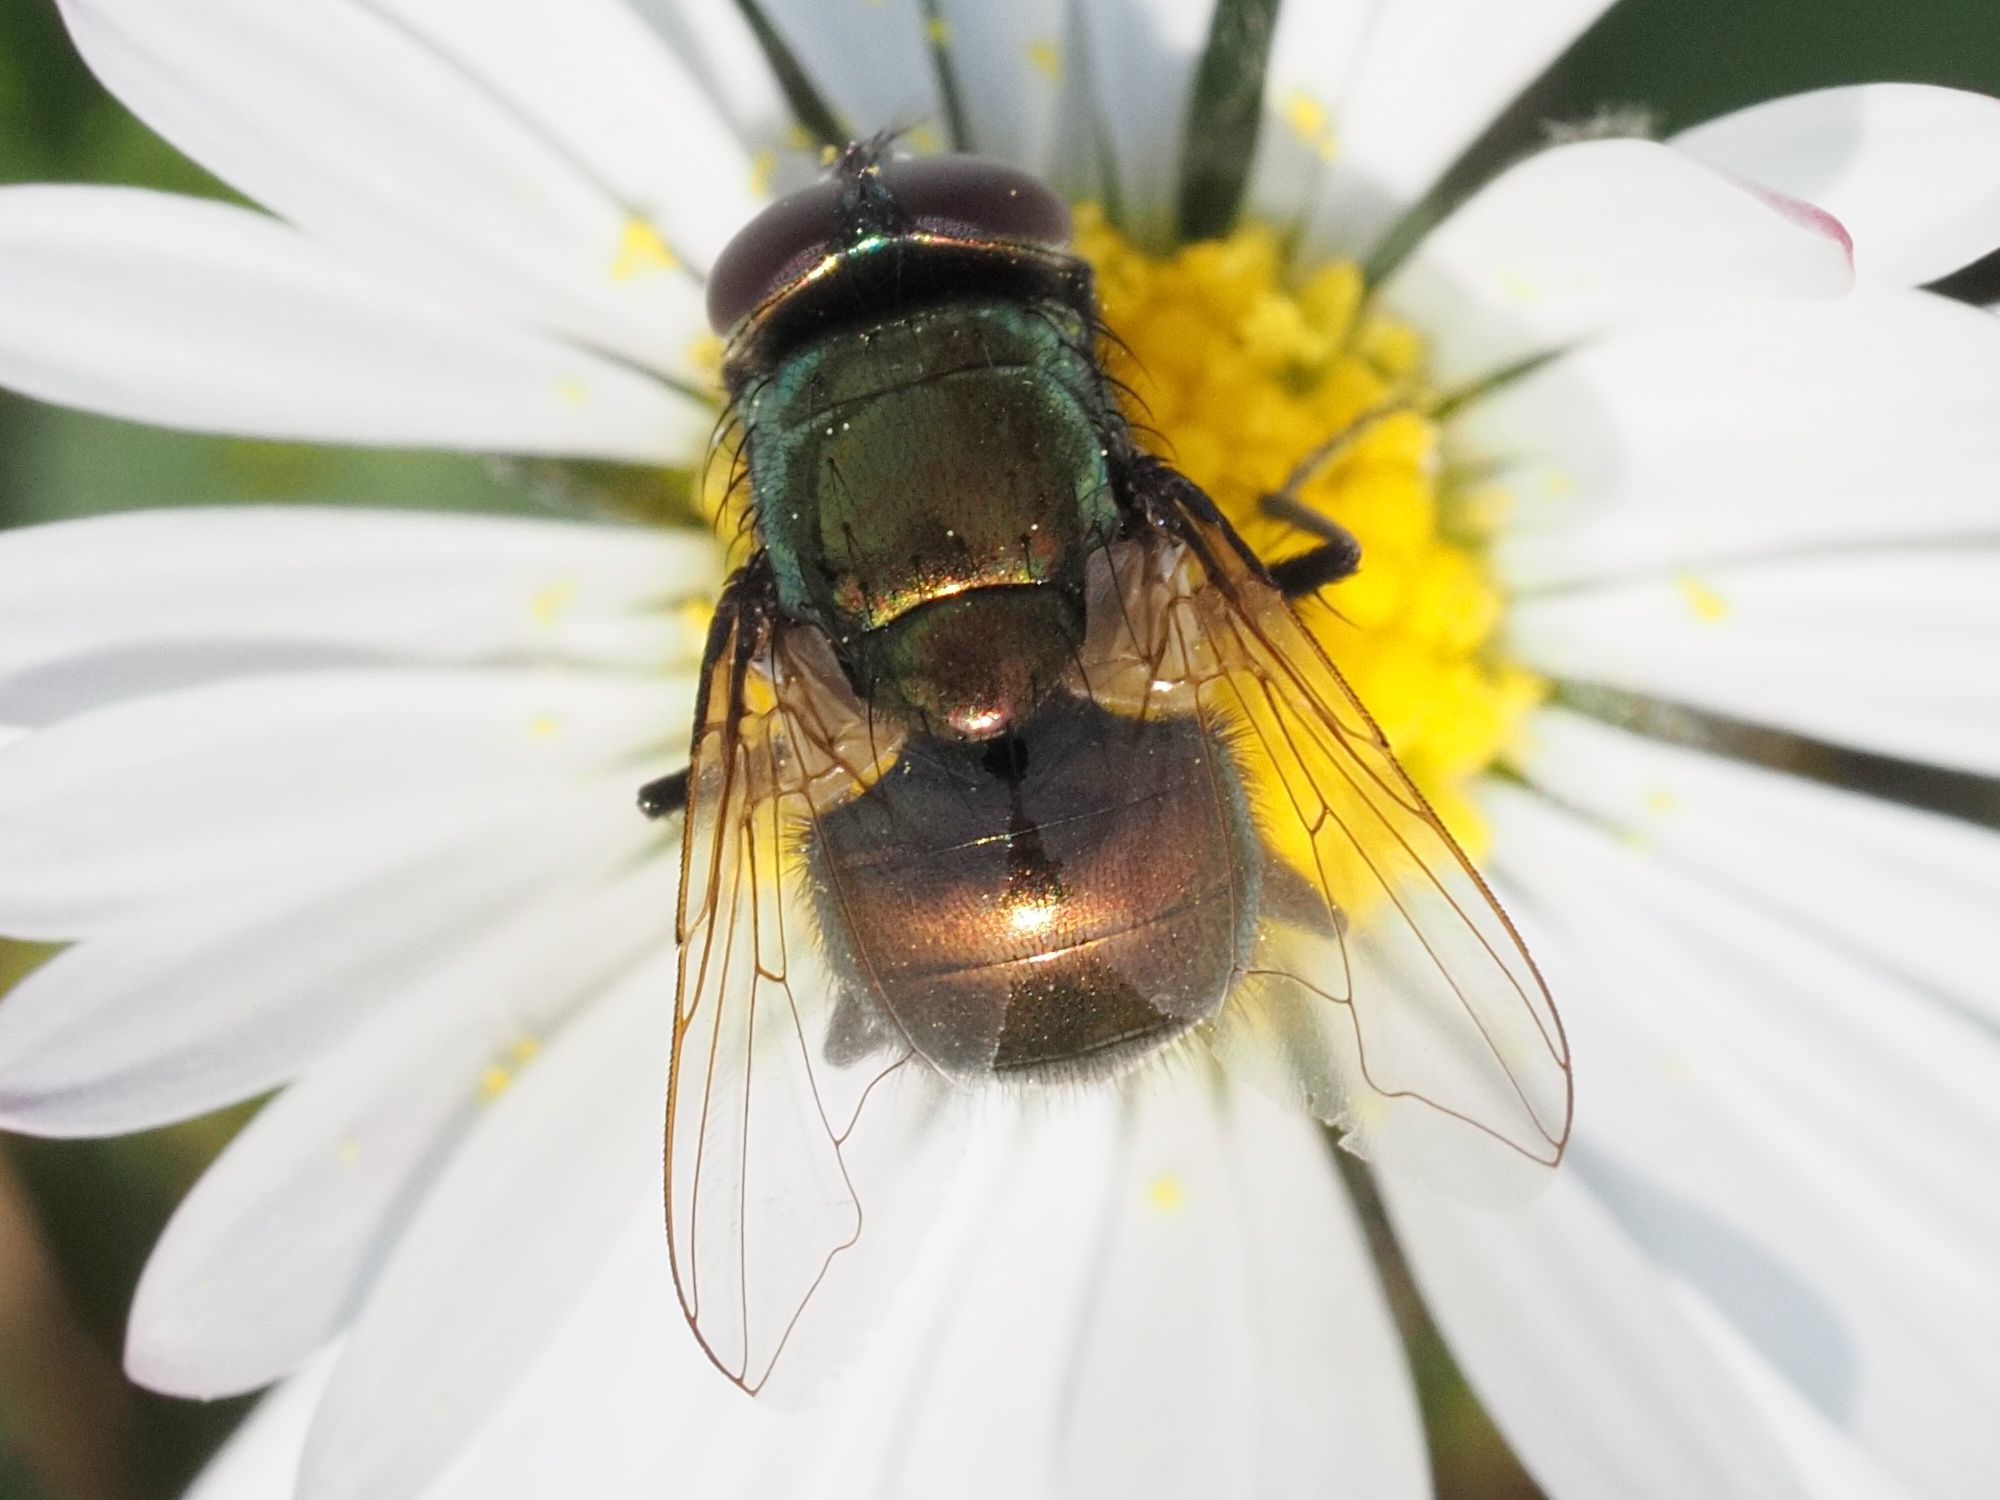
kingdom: Animalia
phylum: Arthropoda
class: Insecta
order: Diptera
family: Muscidae
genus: Neomyia
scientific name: Neomyia cornicina
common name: House fly
